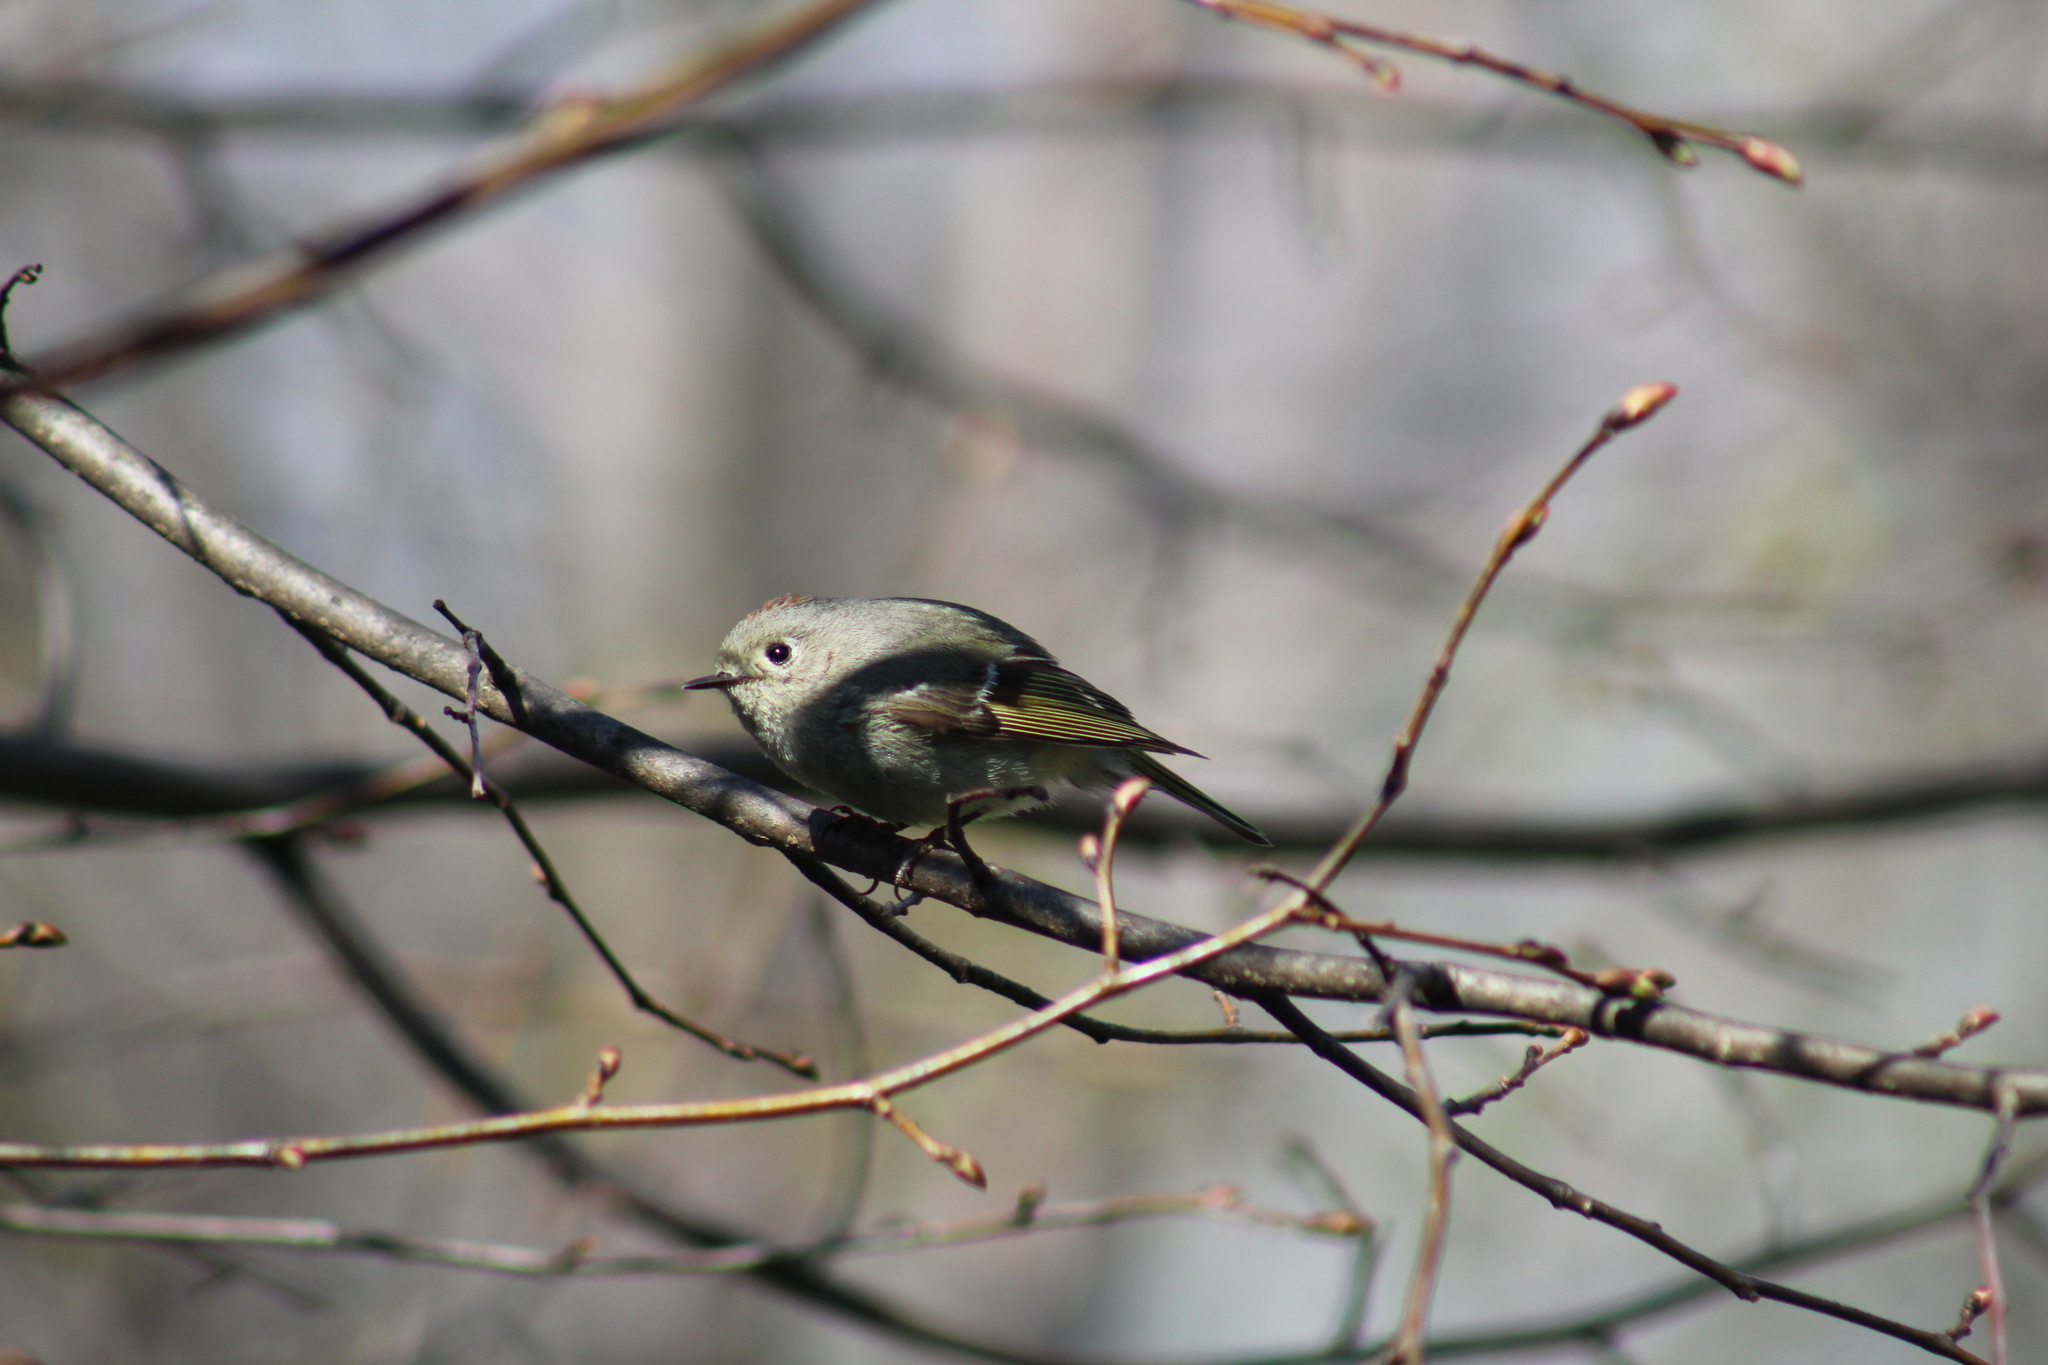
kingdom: Animalia
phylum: Chordata
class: Aves
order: Passeriformes
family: Regulidae
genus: Regulus
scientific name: Regulus calendula
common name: Ruby-crowned kinglet
